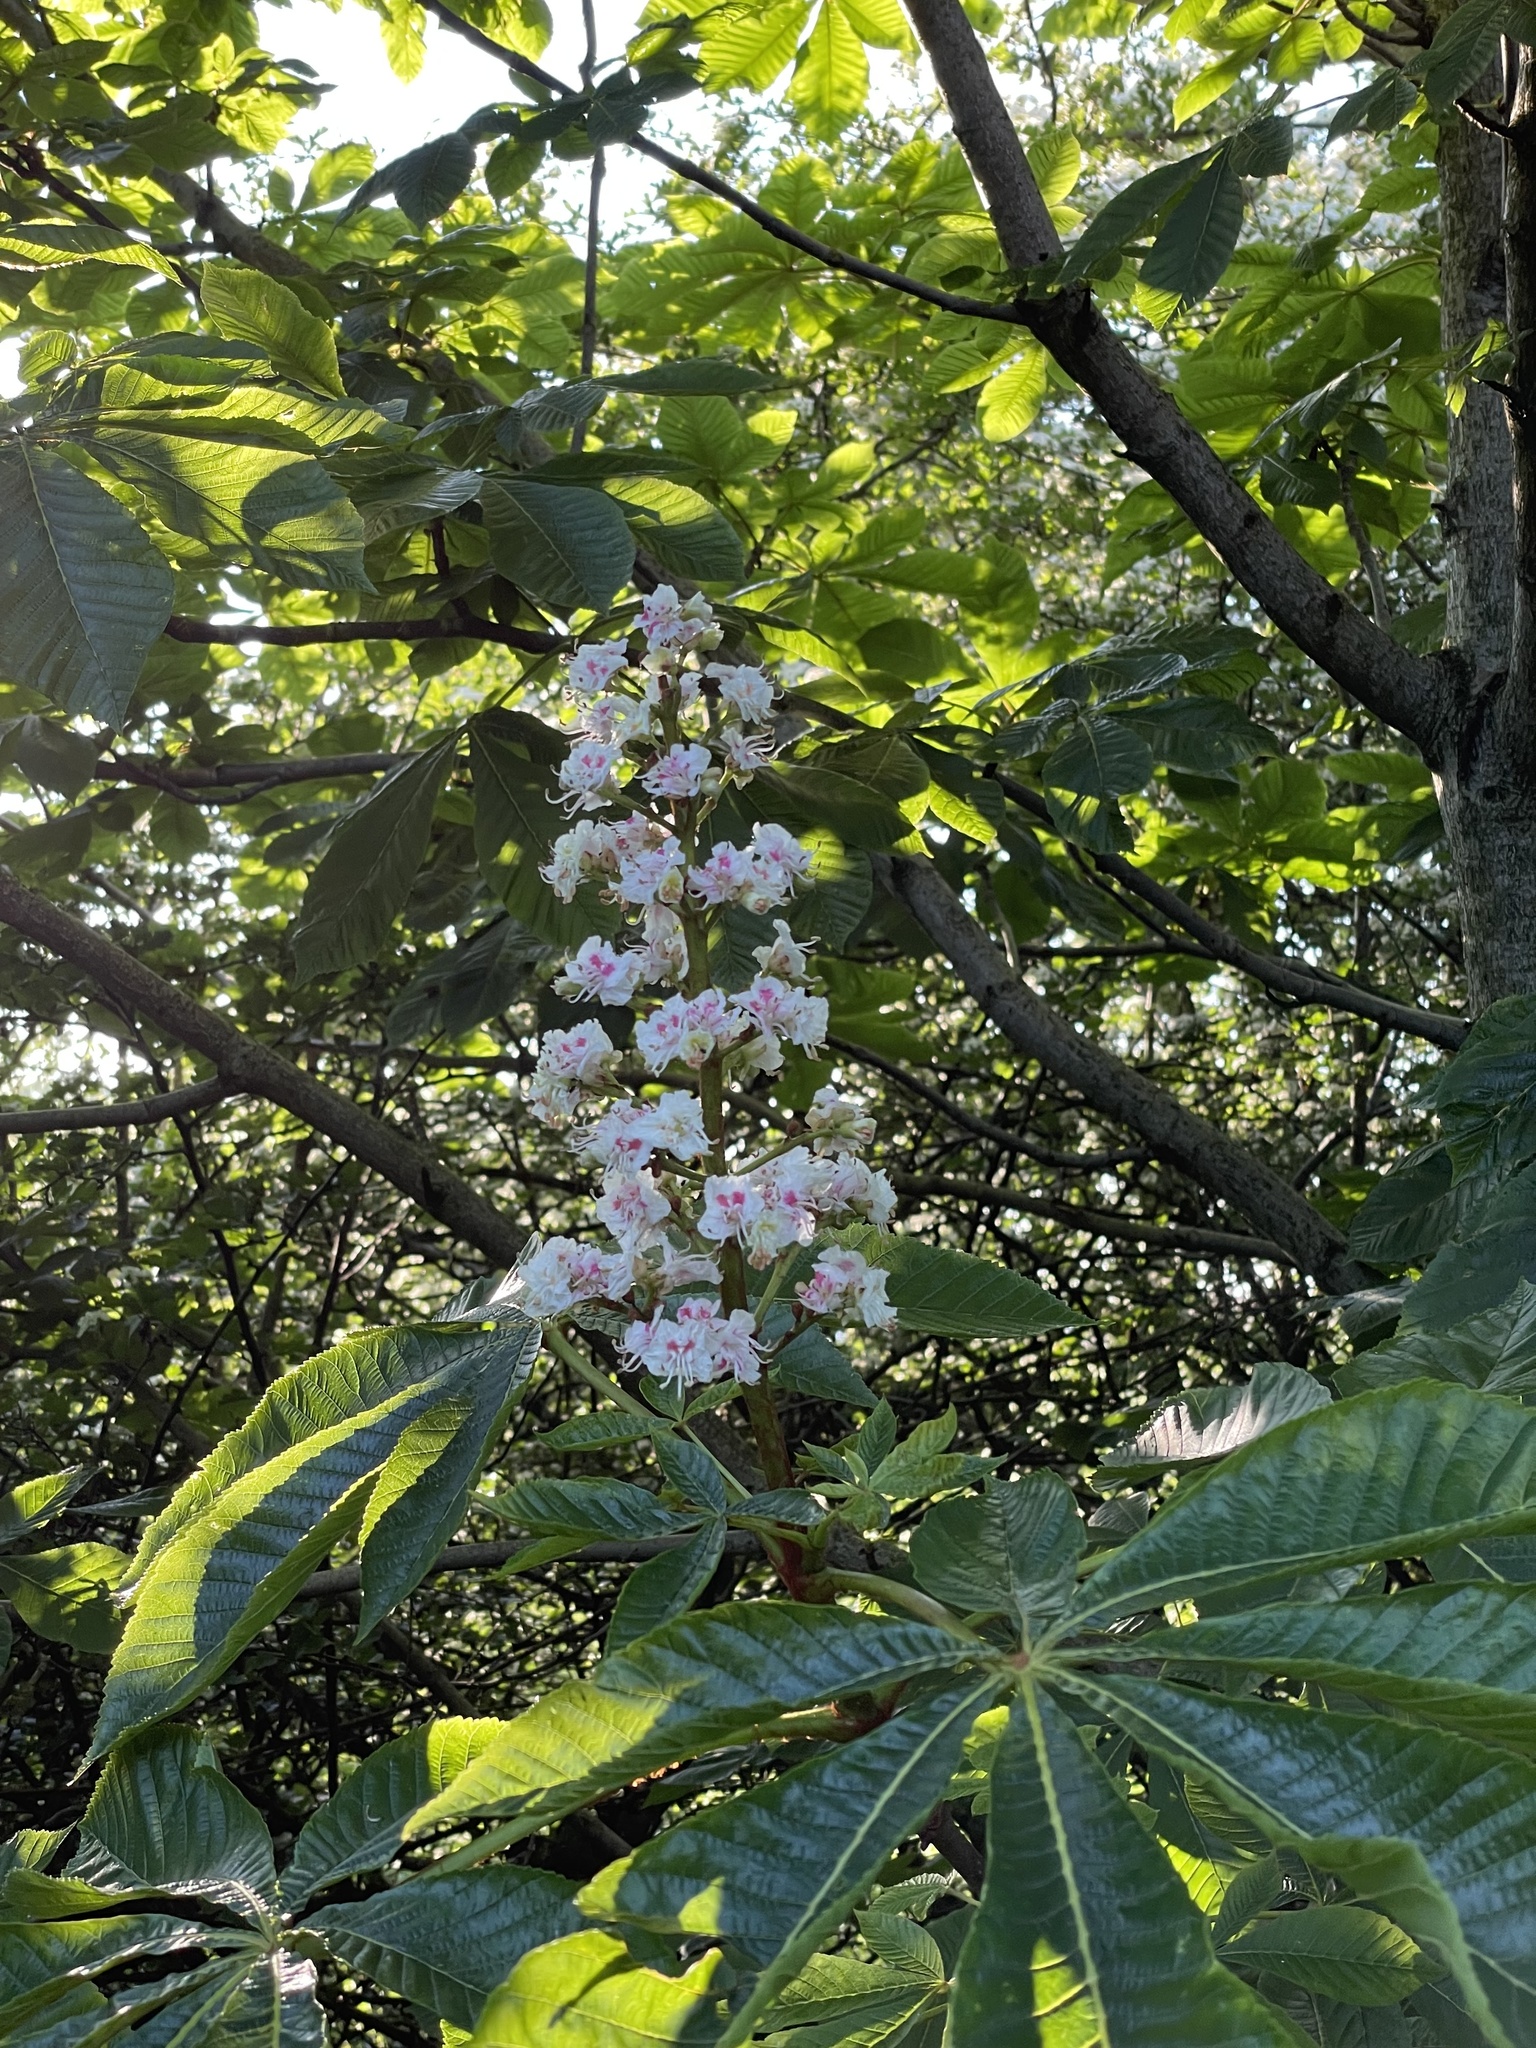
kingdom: Plantae
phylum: Tracheophyta
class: Magnoliopsida
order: Sapindales
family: Sapindaceae
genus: Aesculus
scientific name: Aesculus hippocastanum
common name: Horse-chestnut
